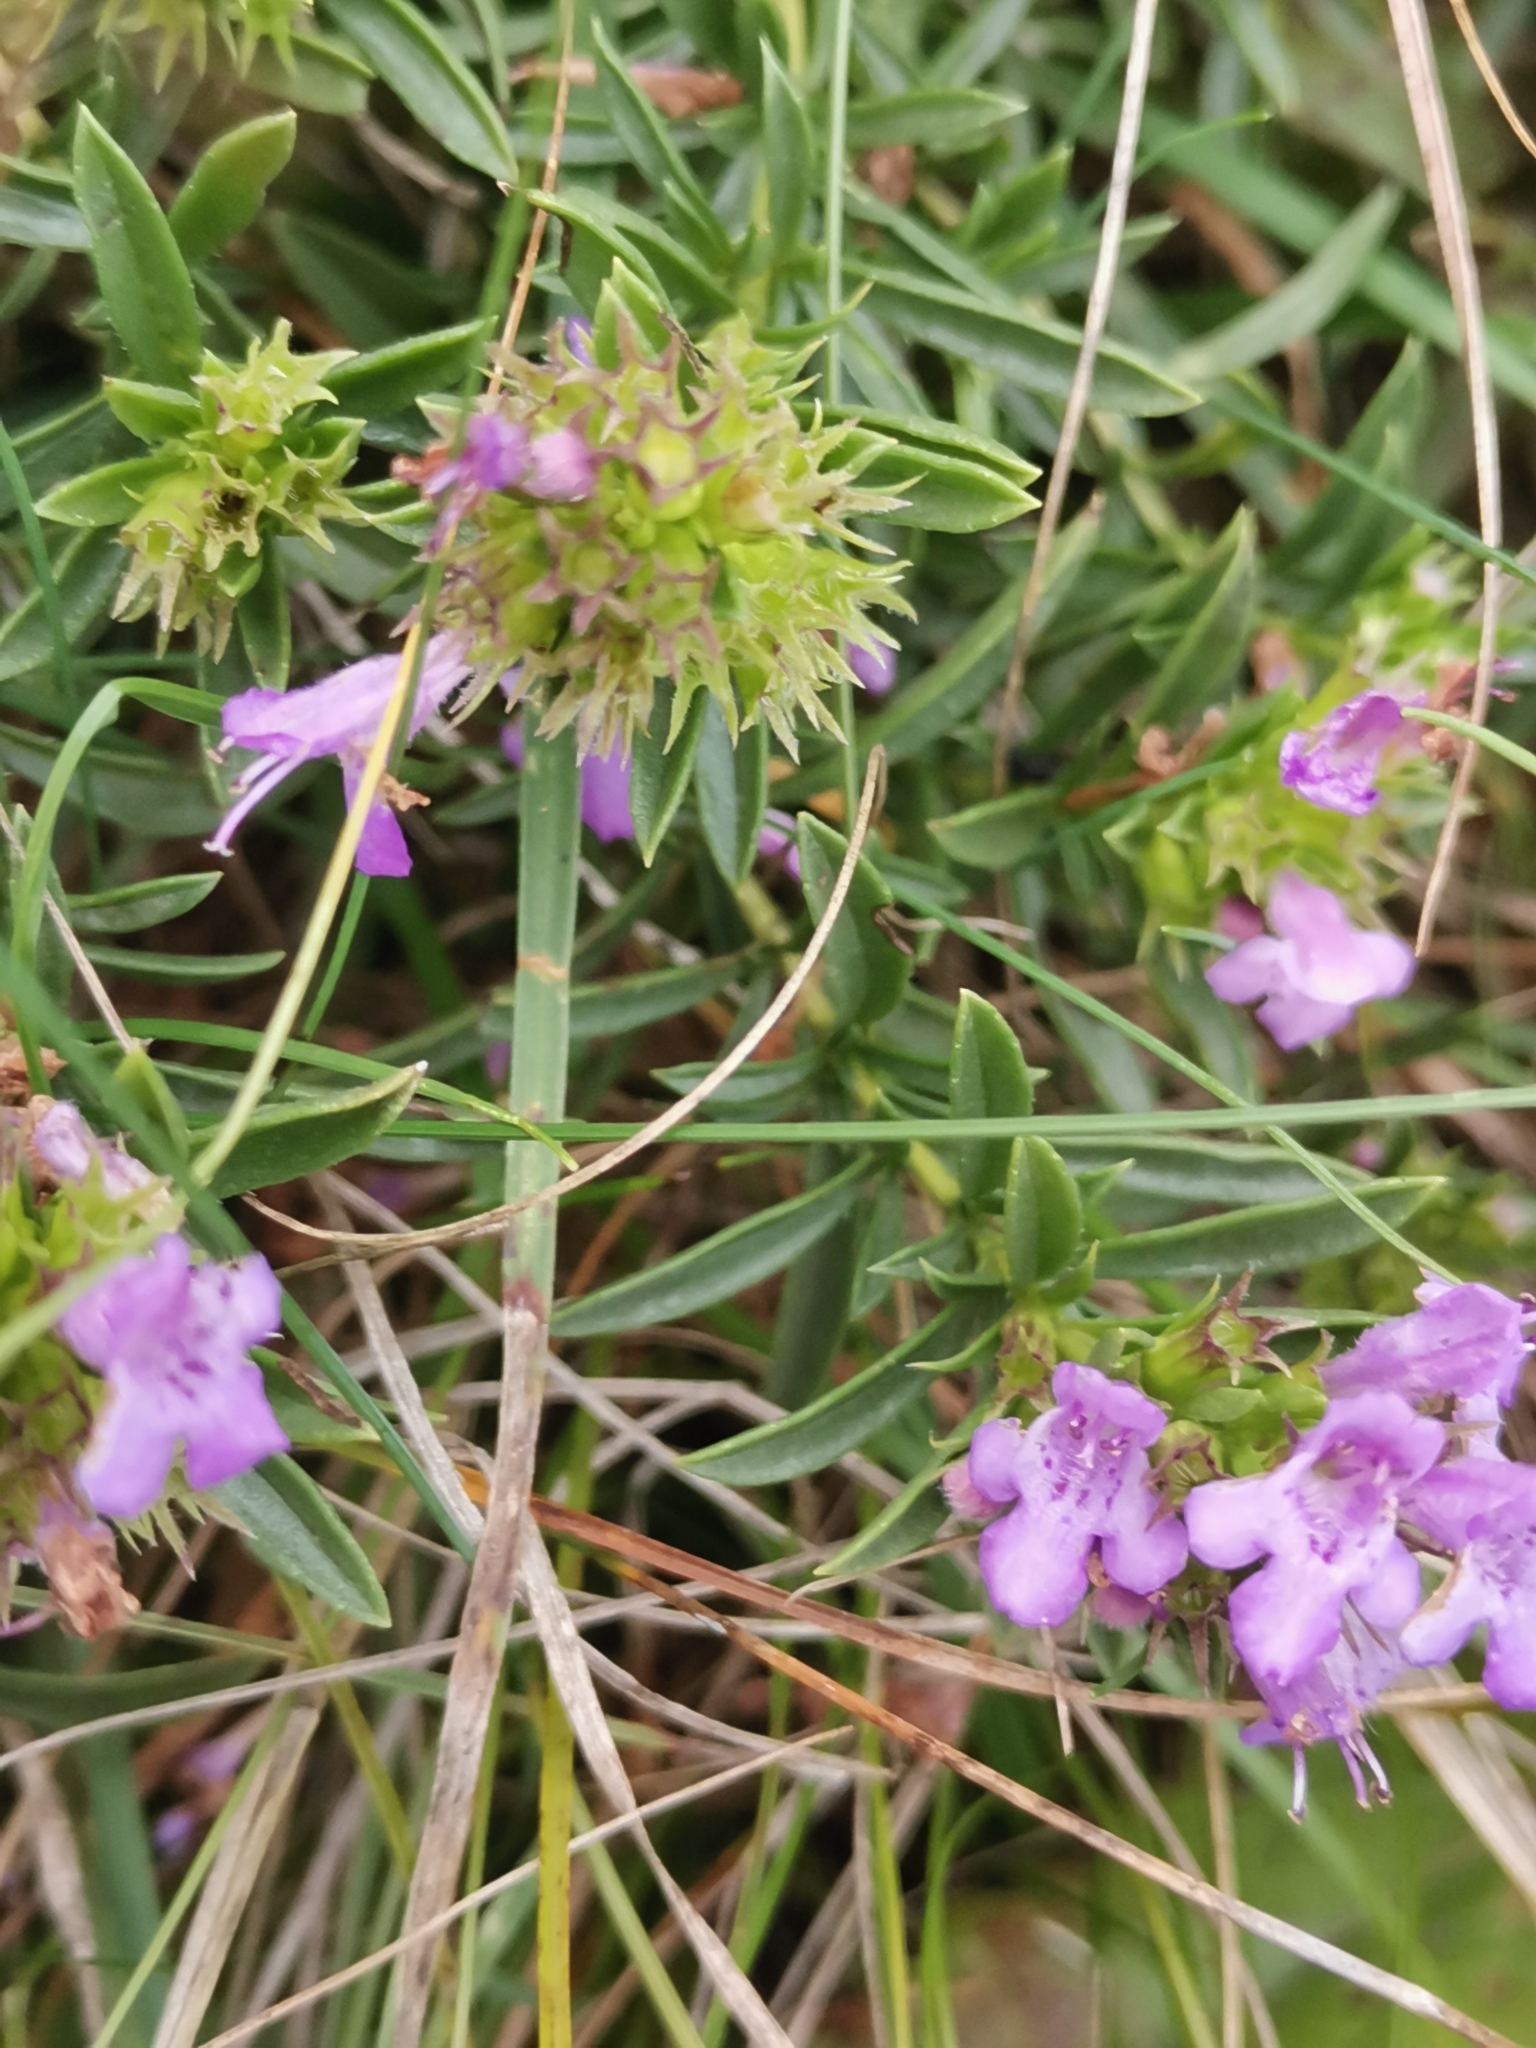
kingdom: Plantae
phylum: Tracheophyta
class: Magnoliopsida
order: Lamiales
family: Lamiaceae
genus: Satureja
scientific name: Satureja subspicata
